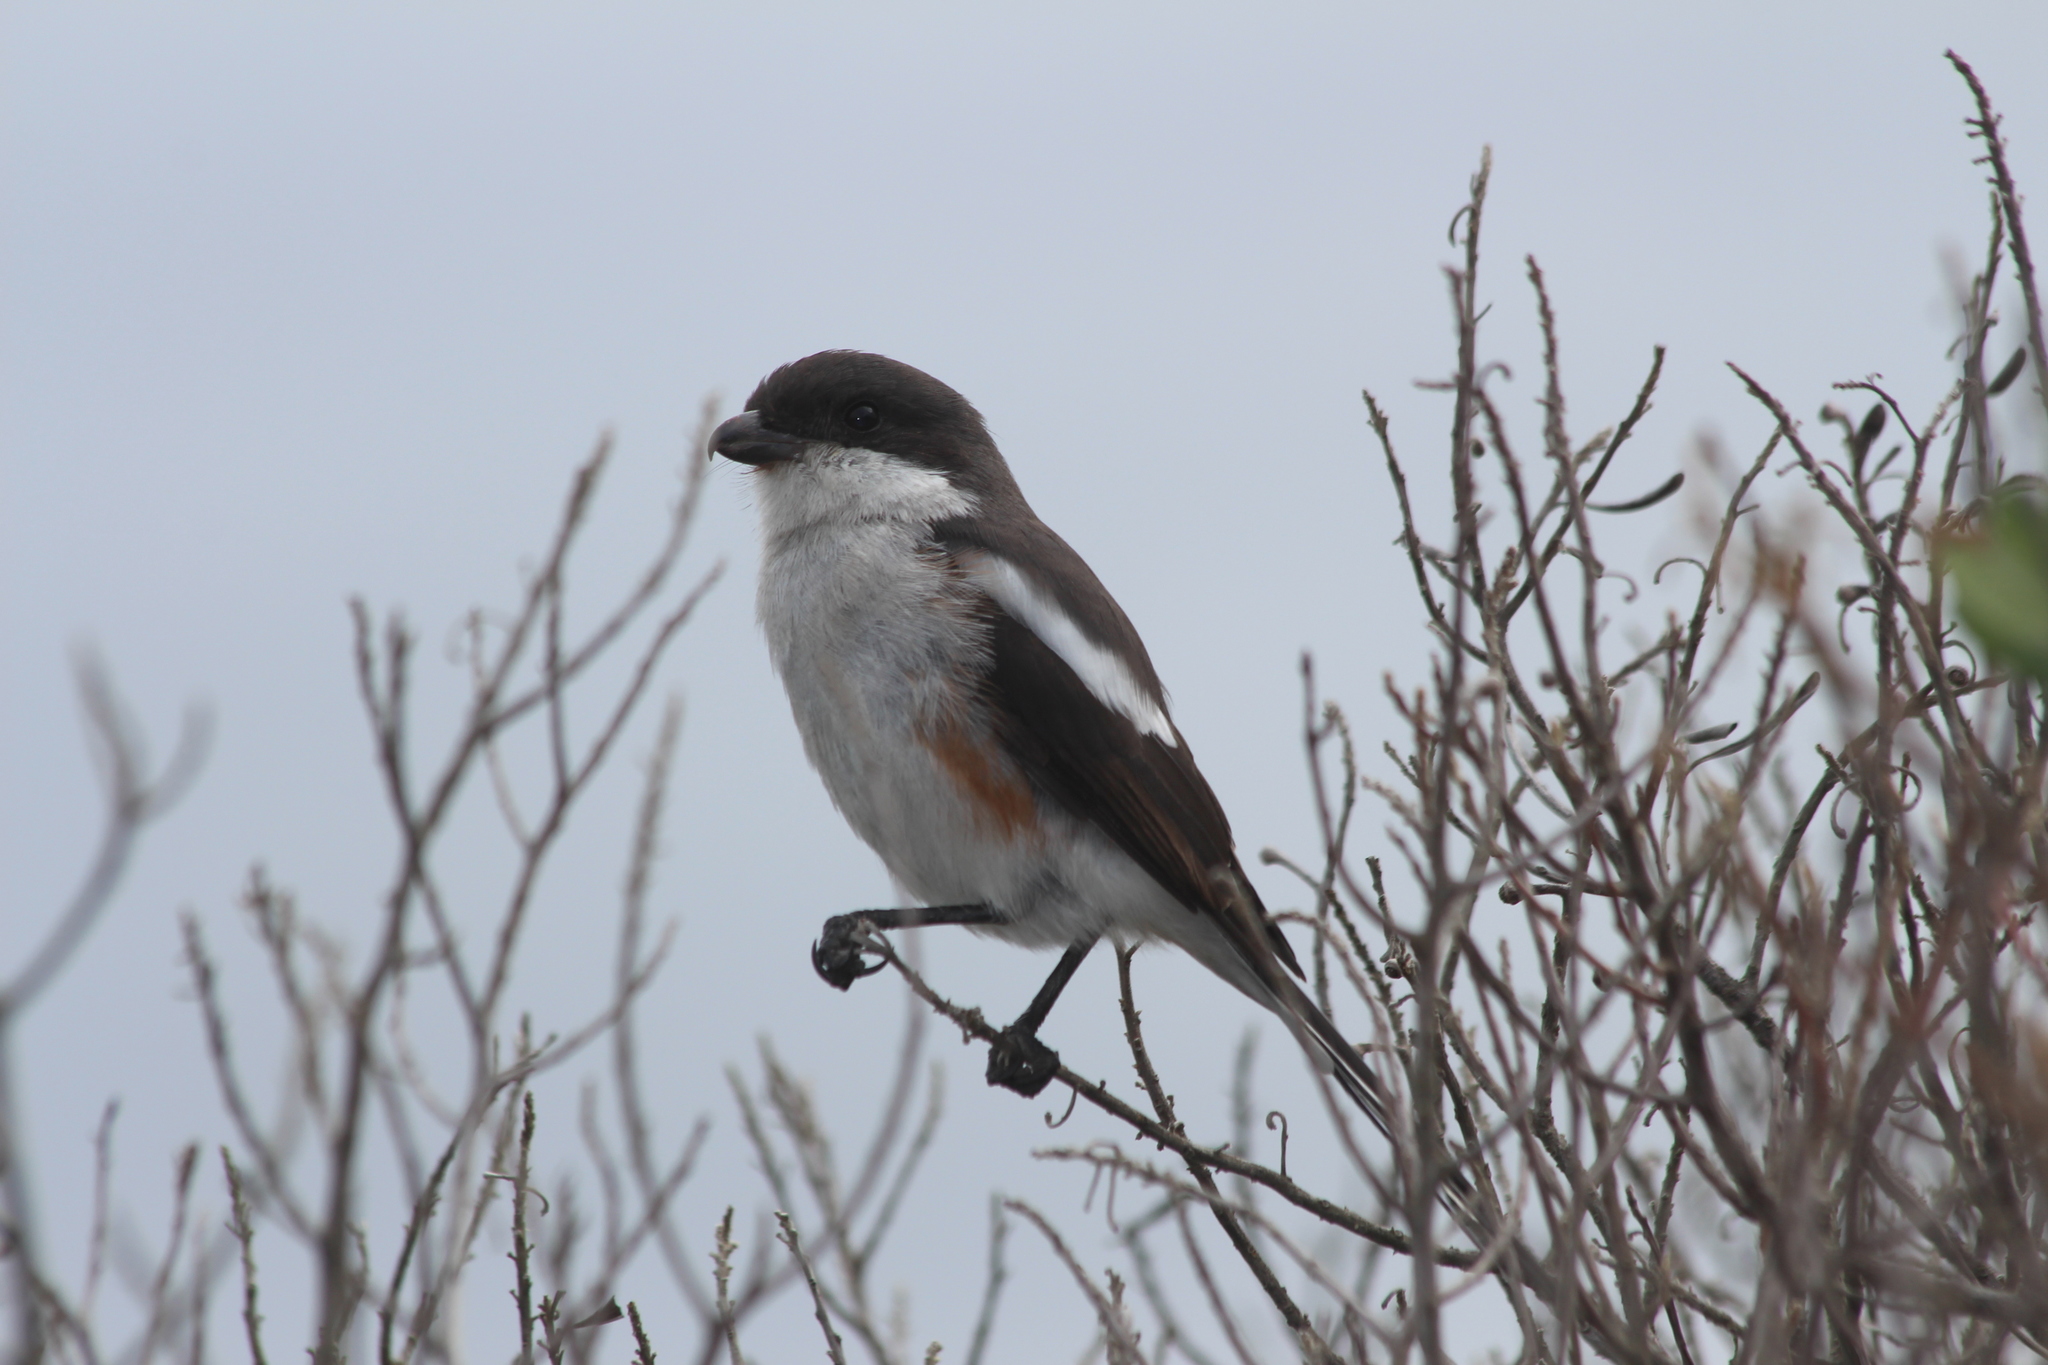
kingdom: Animalia
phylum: Chordata
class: Aves
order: Passeriformes
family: Laniidae
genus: Lanius
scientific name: Lanius collaris
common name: Southern fiscal
